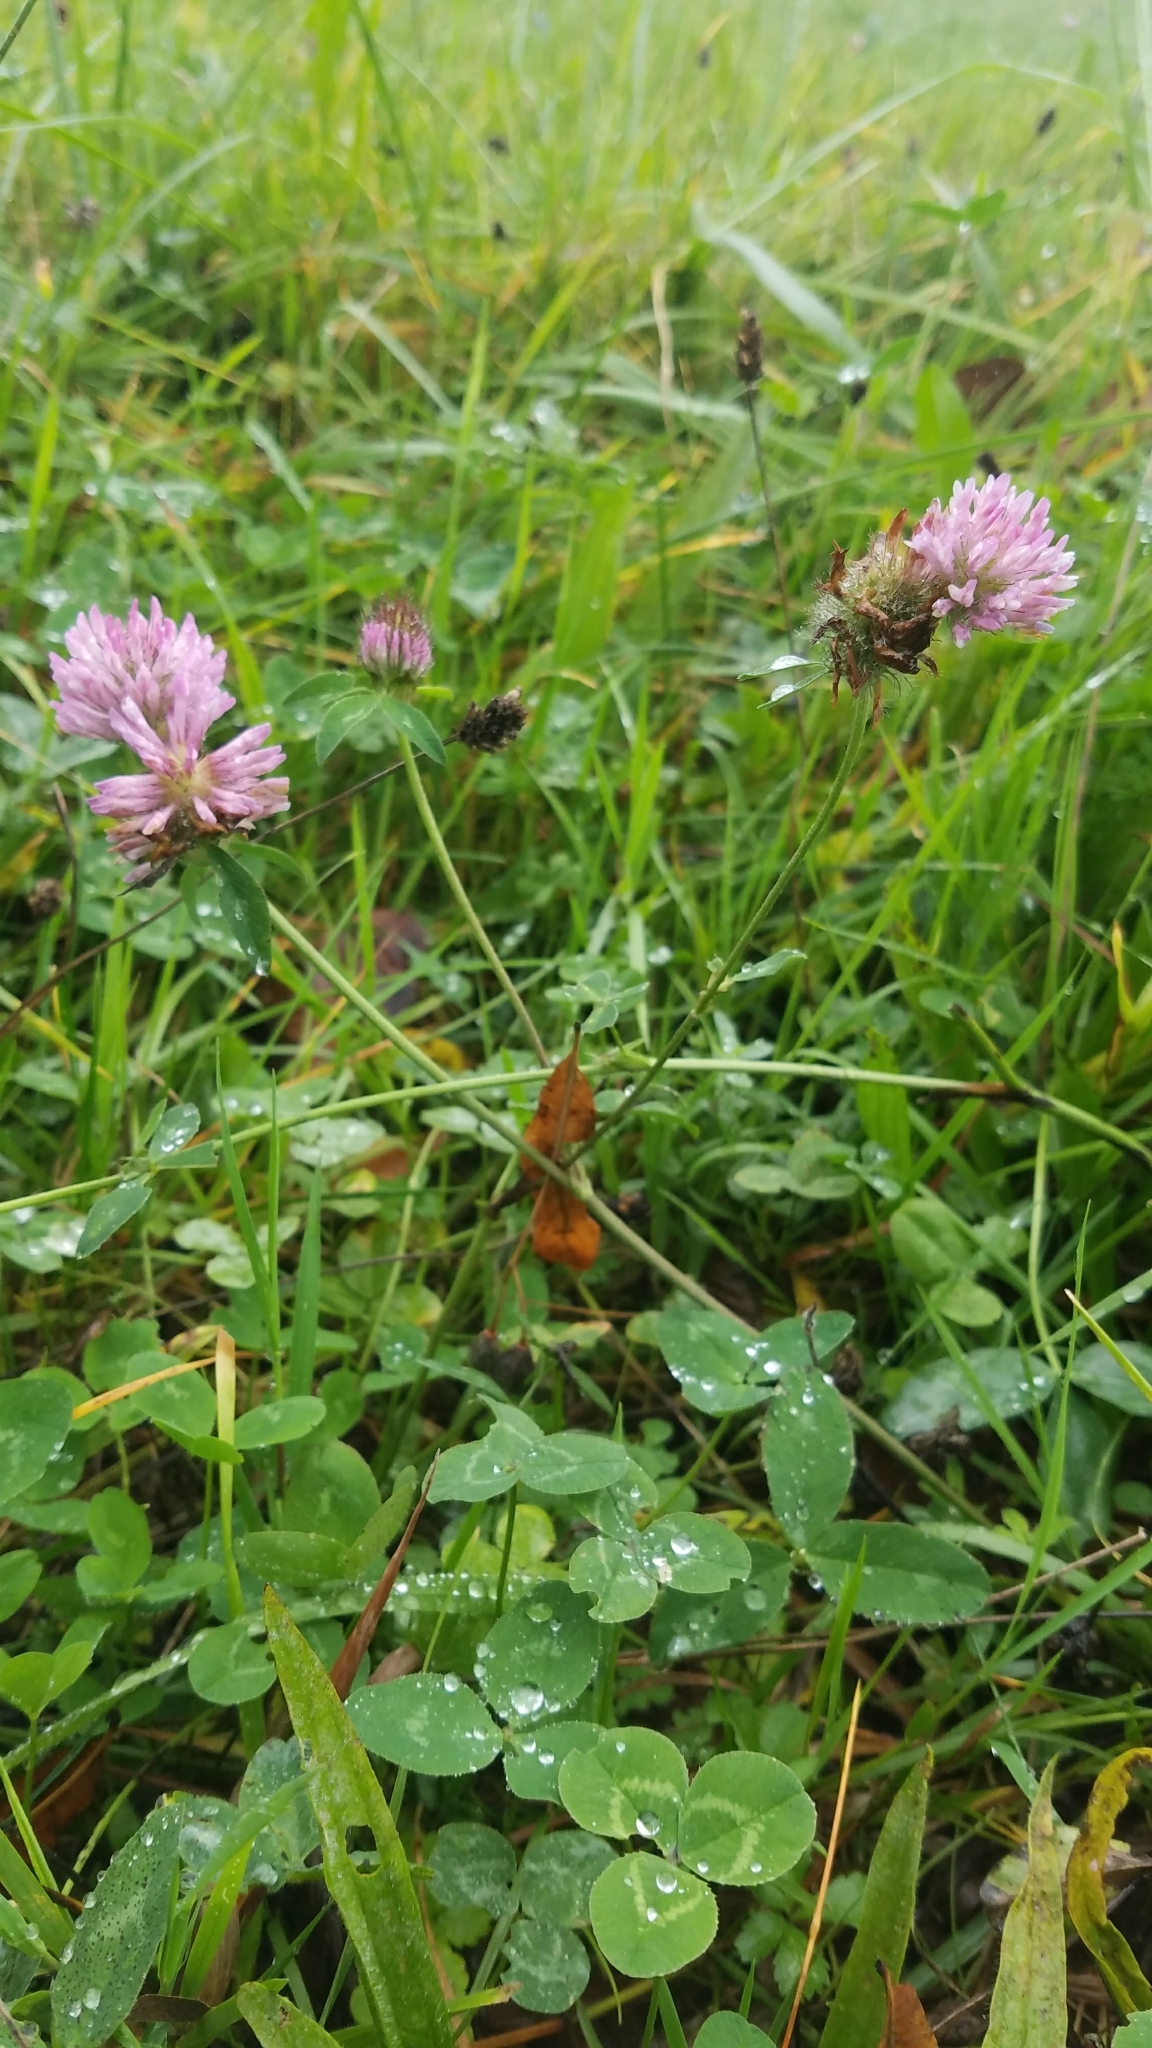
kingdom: Plantae
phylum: Tracheophyta
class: Magnoliopsida
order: Fabales
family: Fabaceae
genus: Trifolium
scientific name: Trifolium pratense
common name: Red clover
